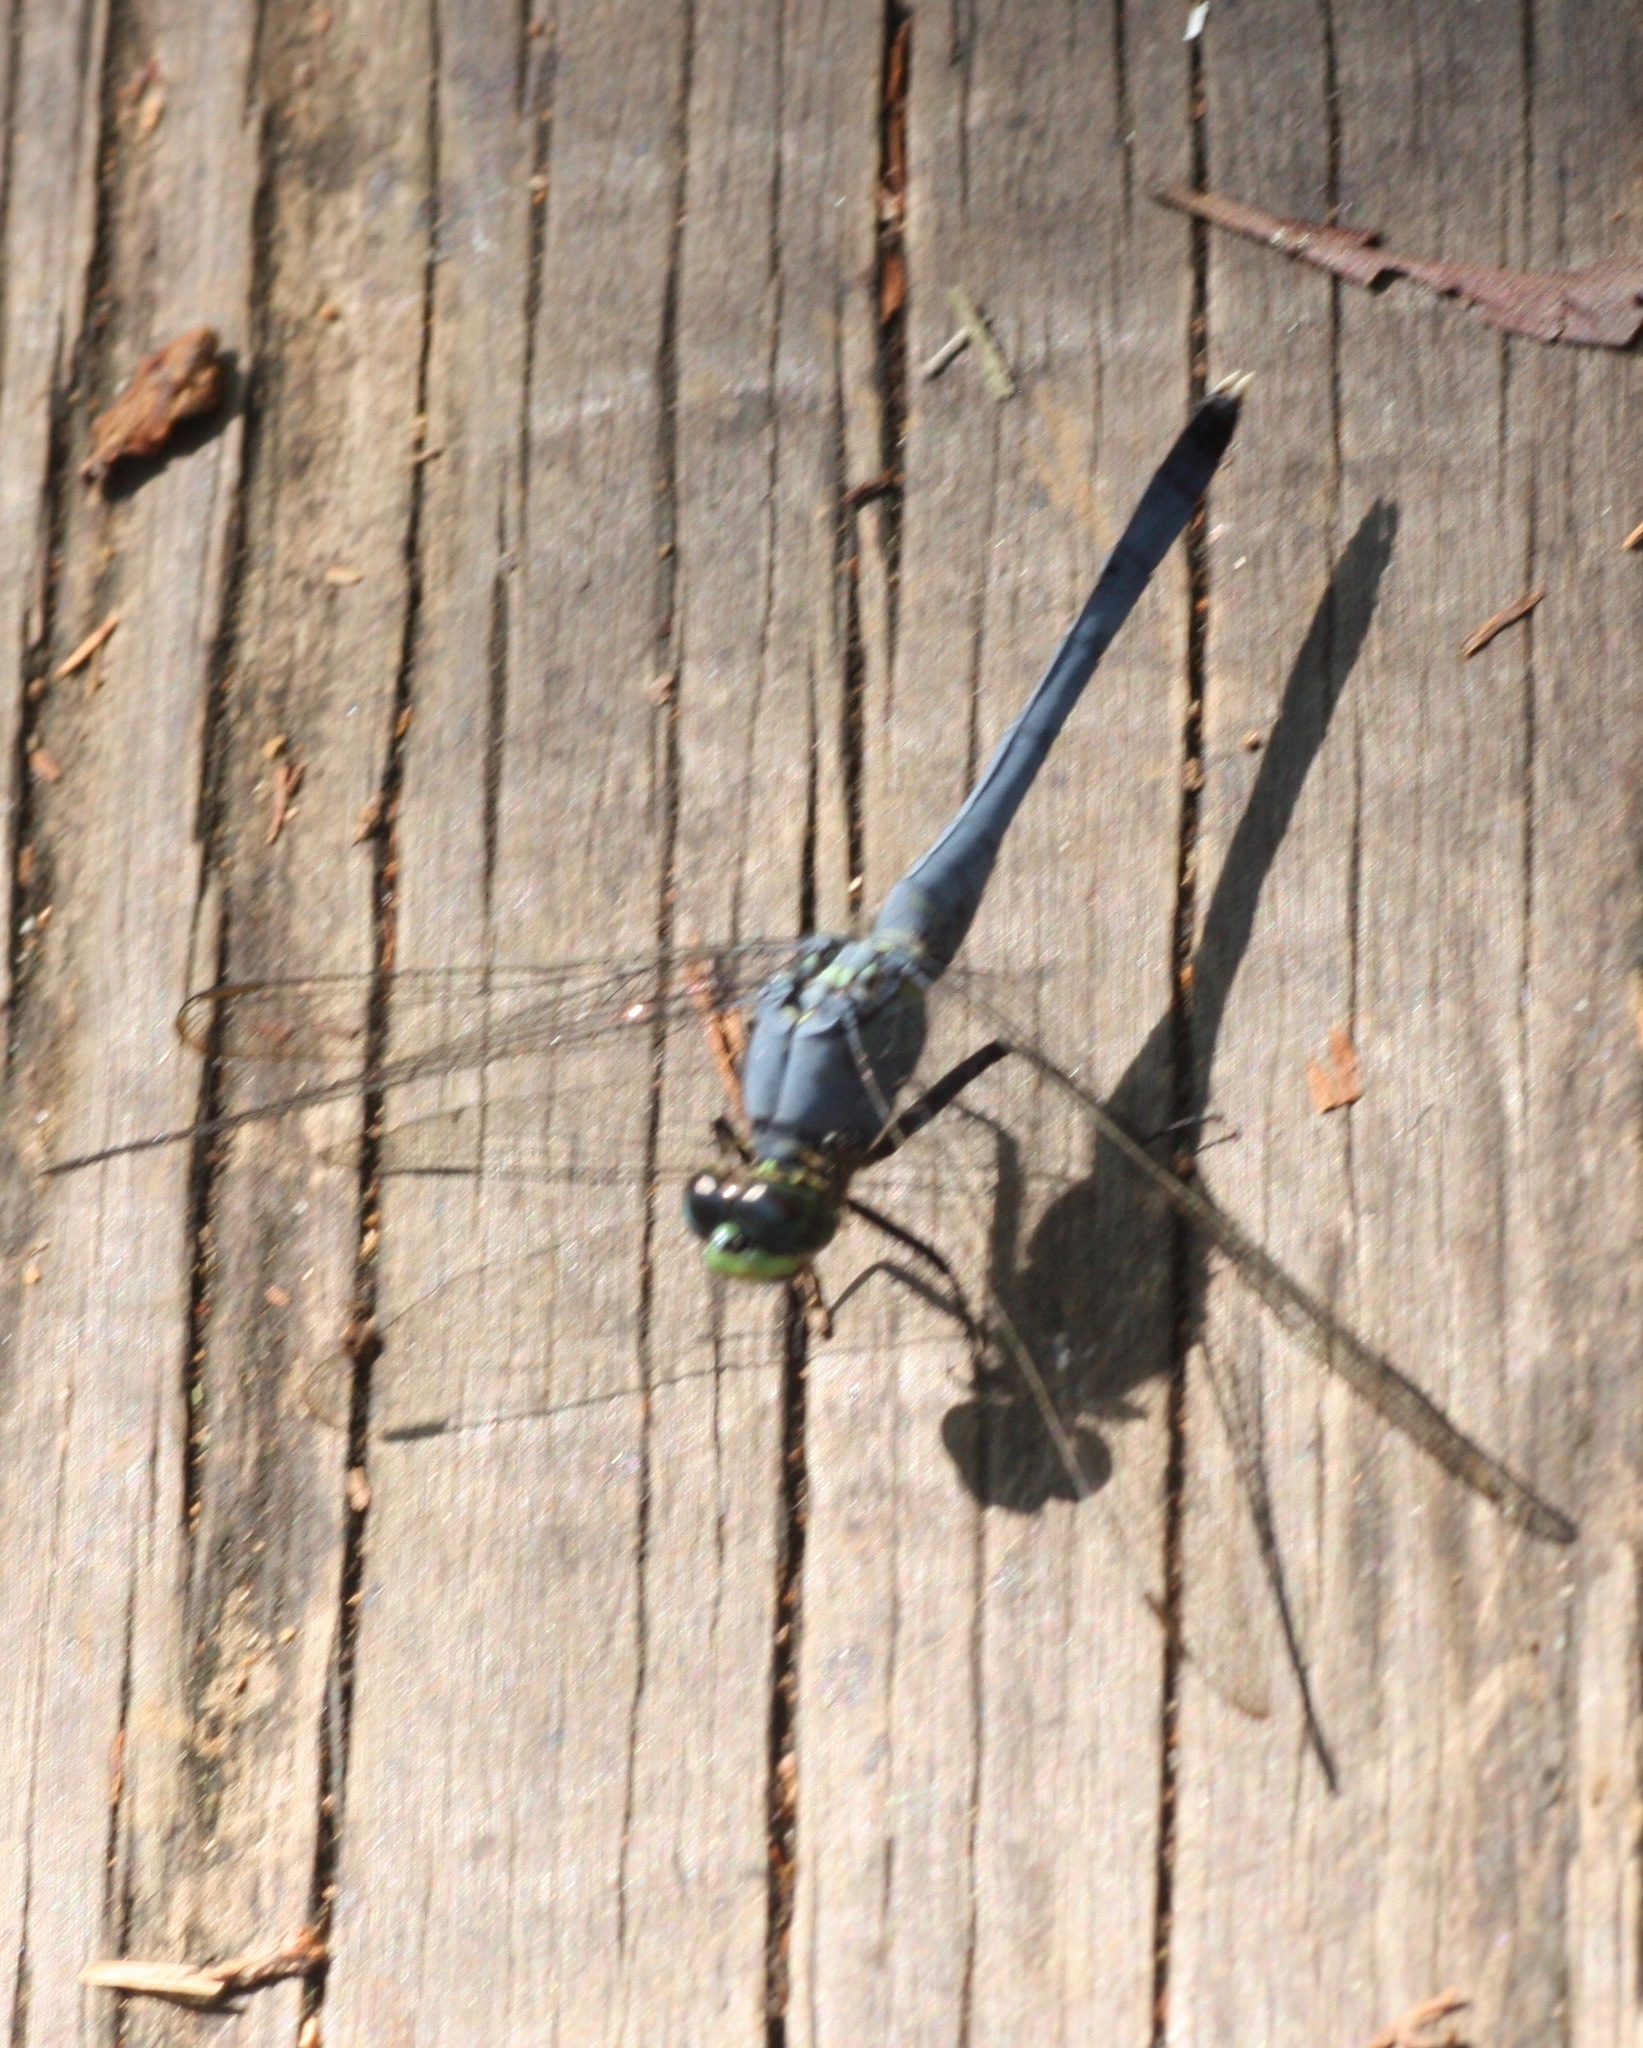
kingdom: Animalia
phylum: Arthropoda
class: Insecta
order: Odonata
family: Libellulidae
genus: Erythemis
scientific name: Erythemis simplicicollis
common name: Eastern pondhawk
